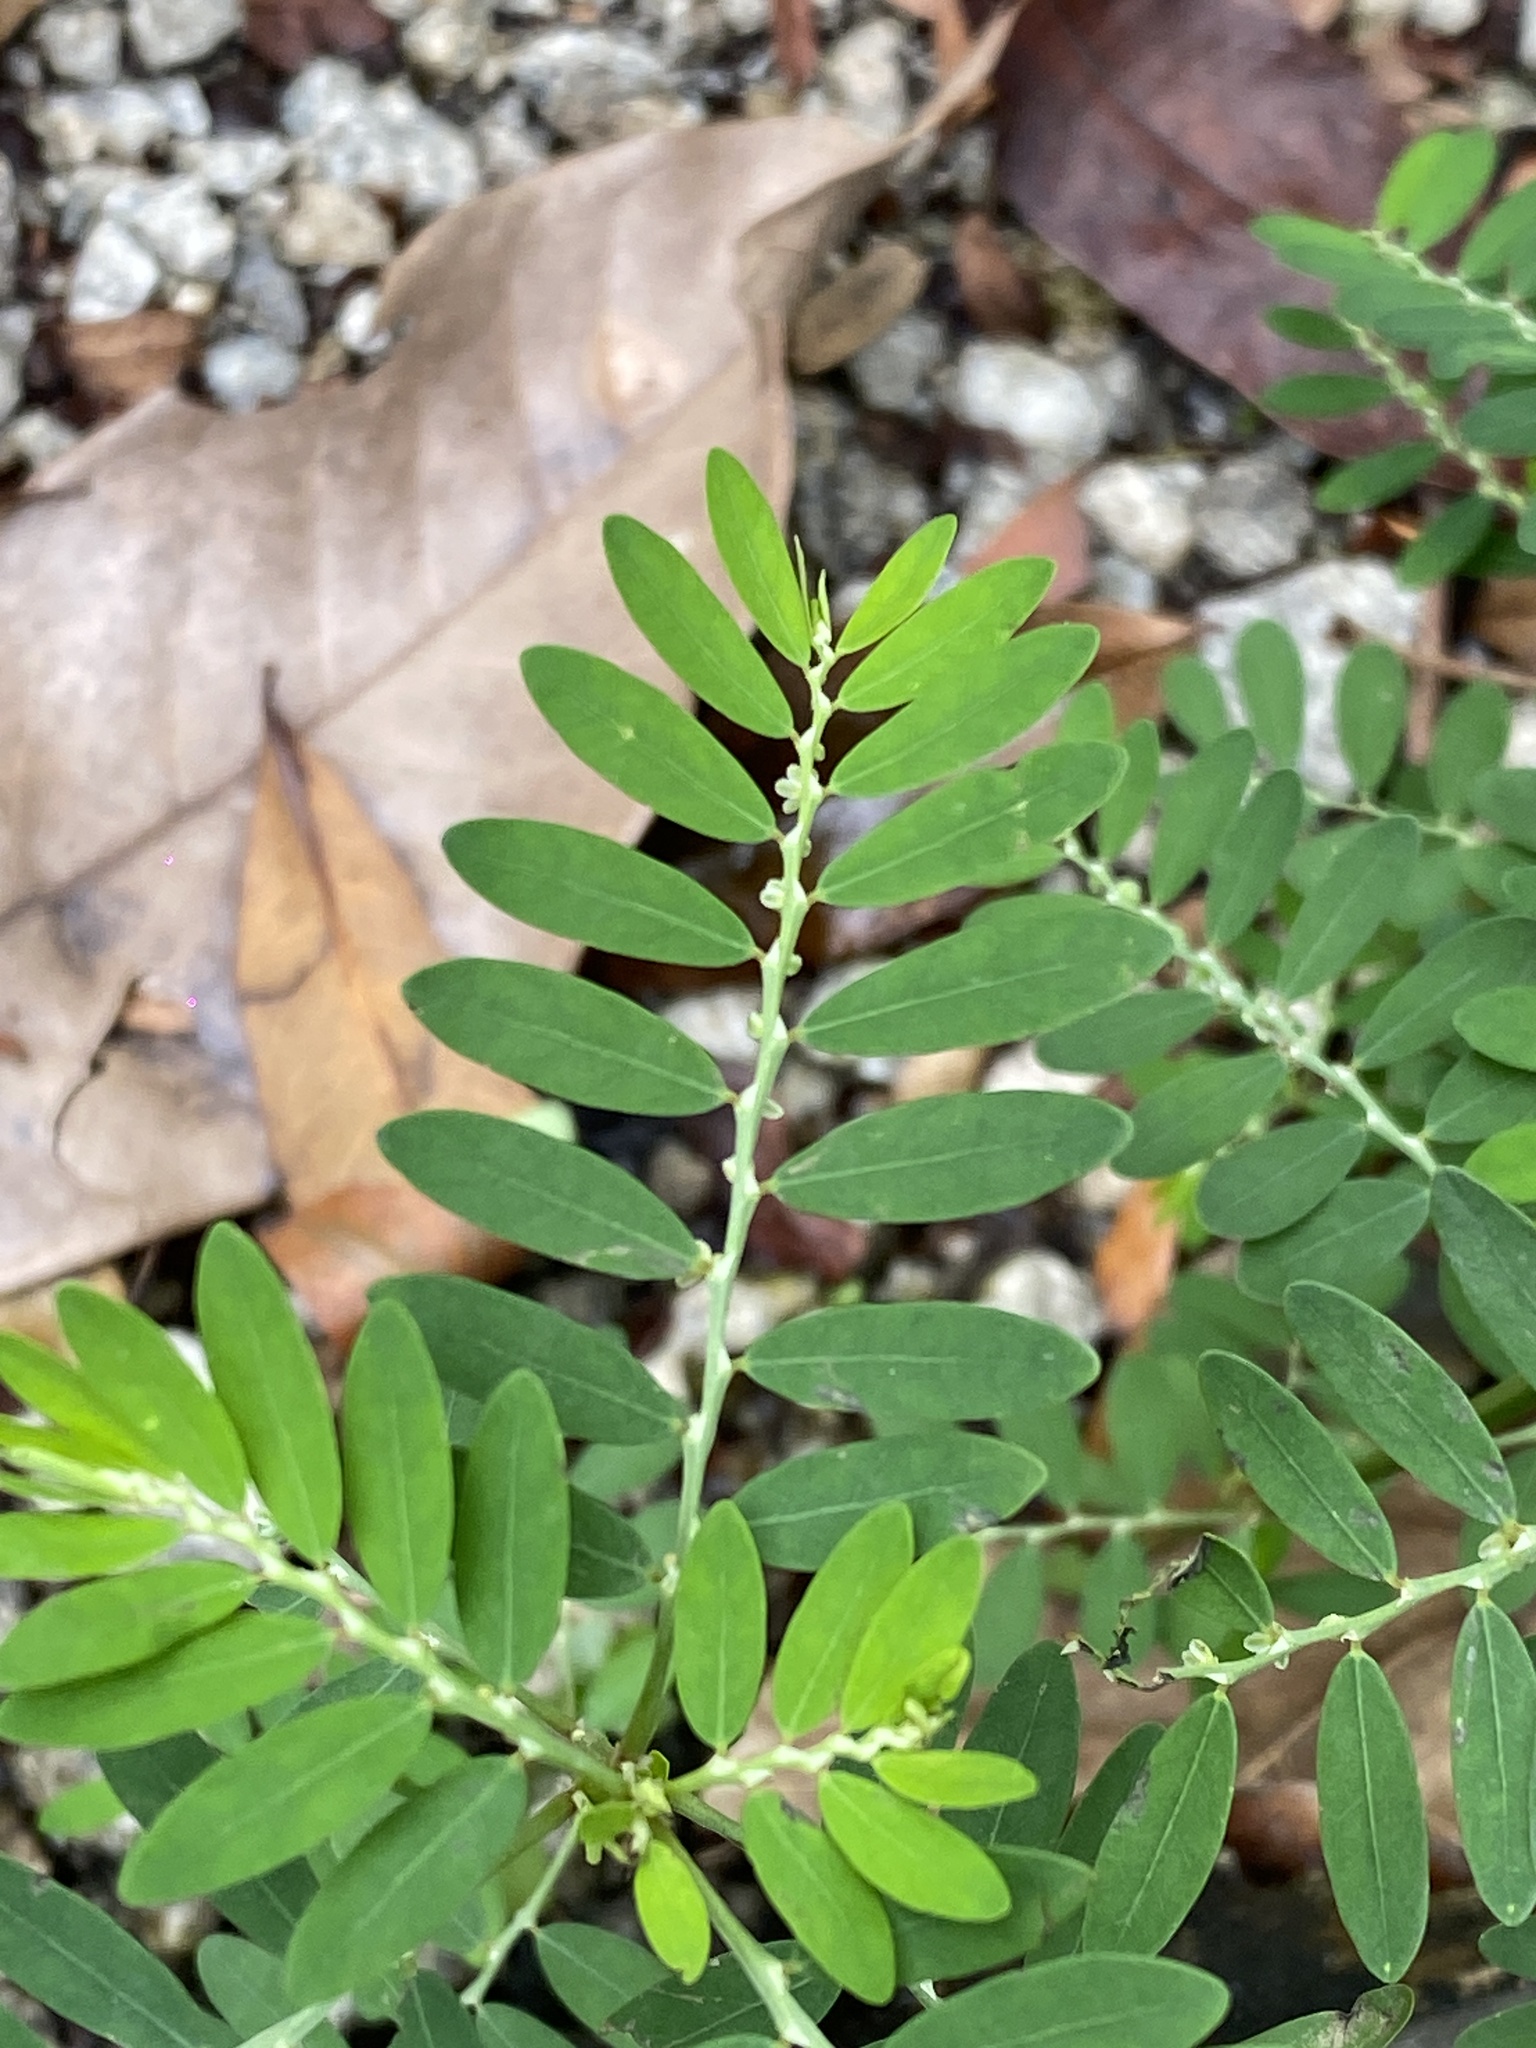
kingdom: Plantae
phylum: Tracheophyta
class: Magnoliopsida
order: Malpighiales
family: Phyllanthaceae
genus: Phyllanthus
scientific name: Phyllanthus debilis
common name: Niruri
